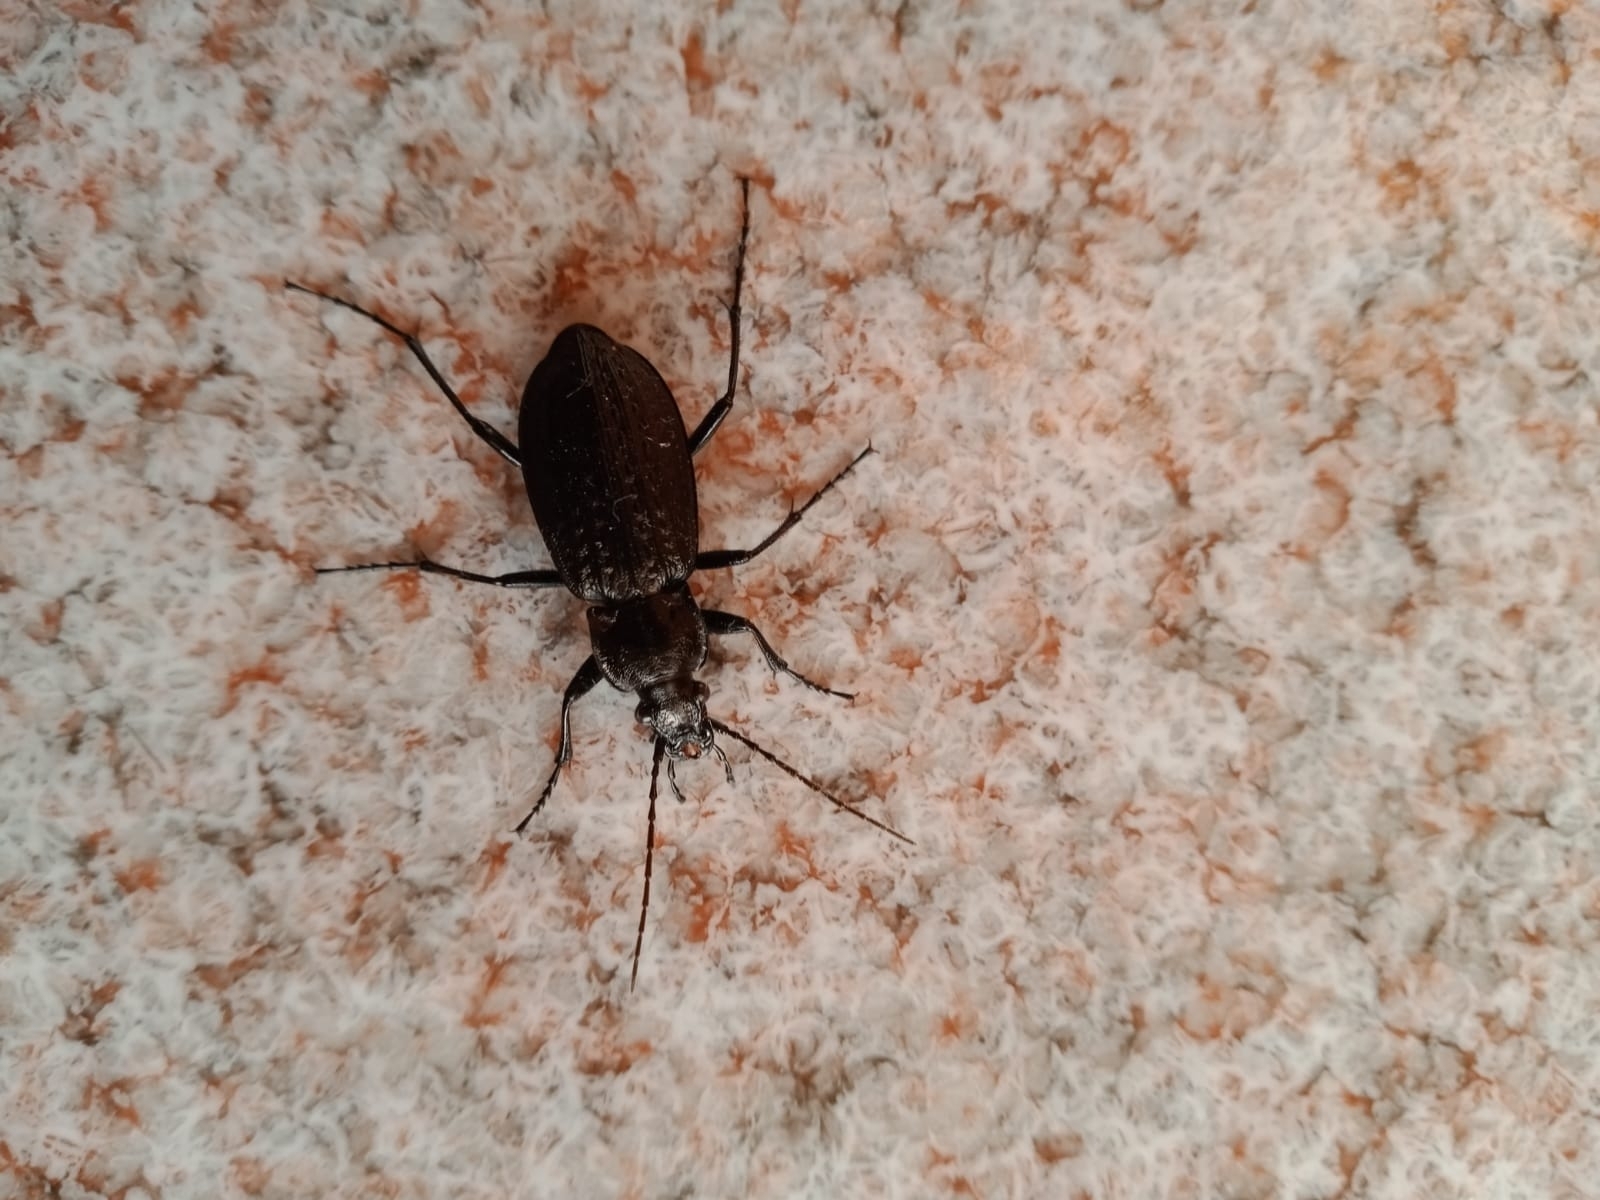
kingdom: Animalia
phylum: Arthropoda
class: Insecta
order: Coleoptera
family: Carabidae
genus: Carabus
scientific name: Carabus granulatus
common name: Granulate ground beetle
